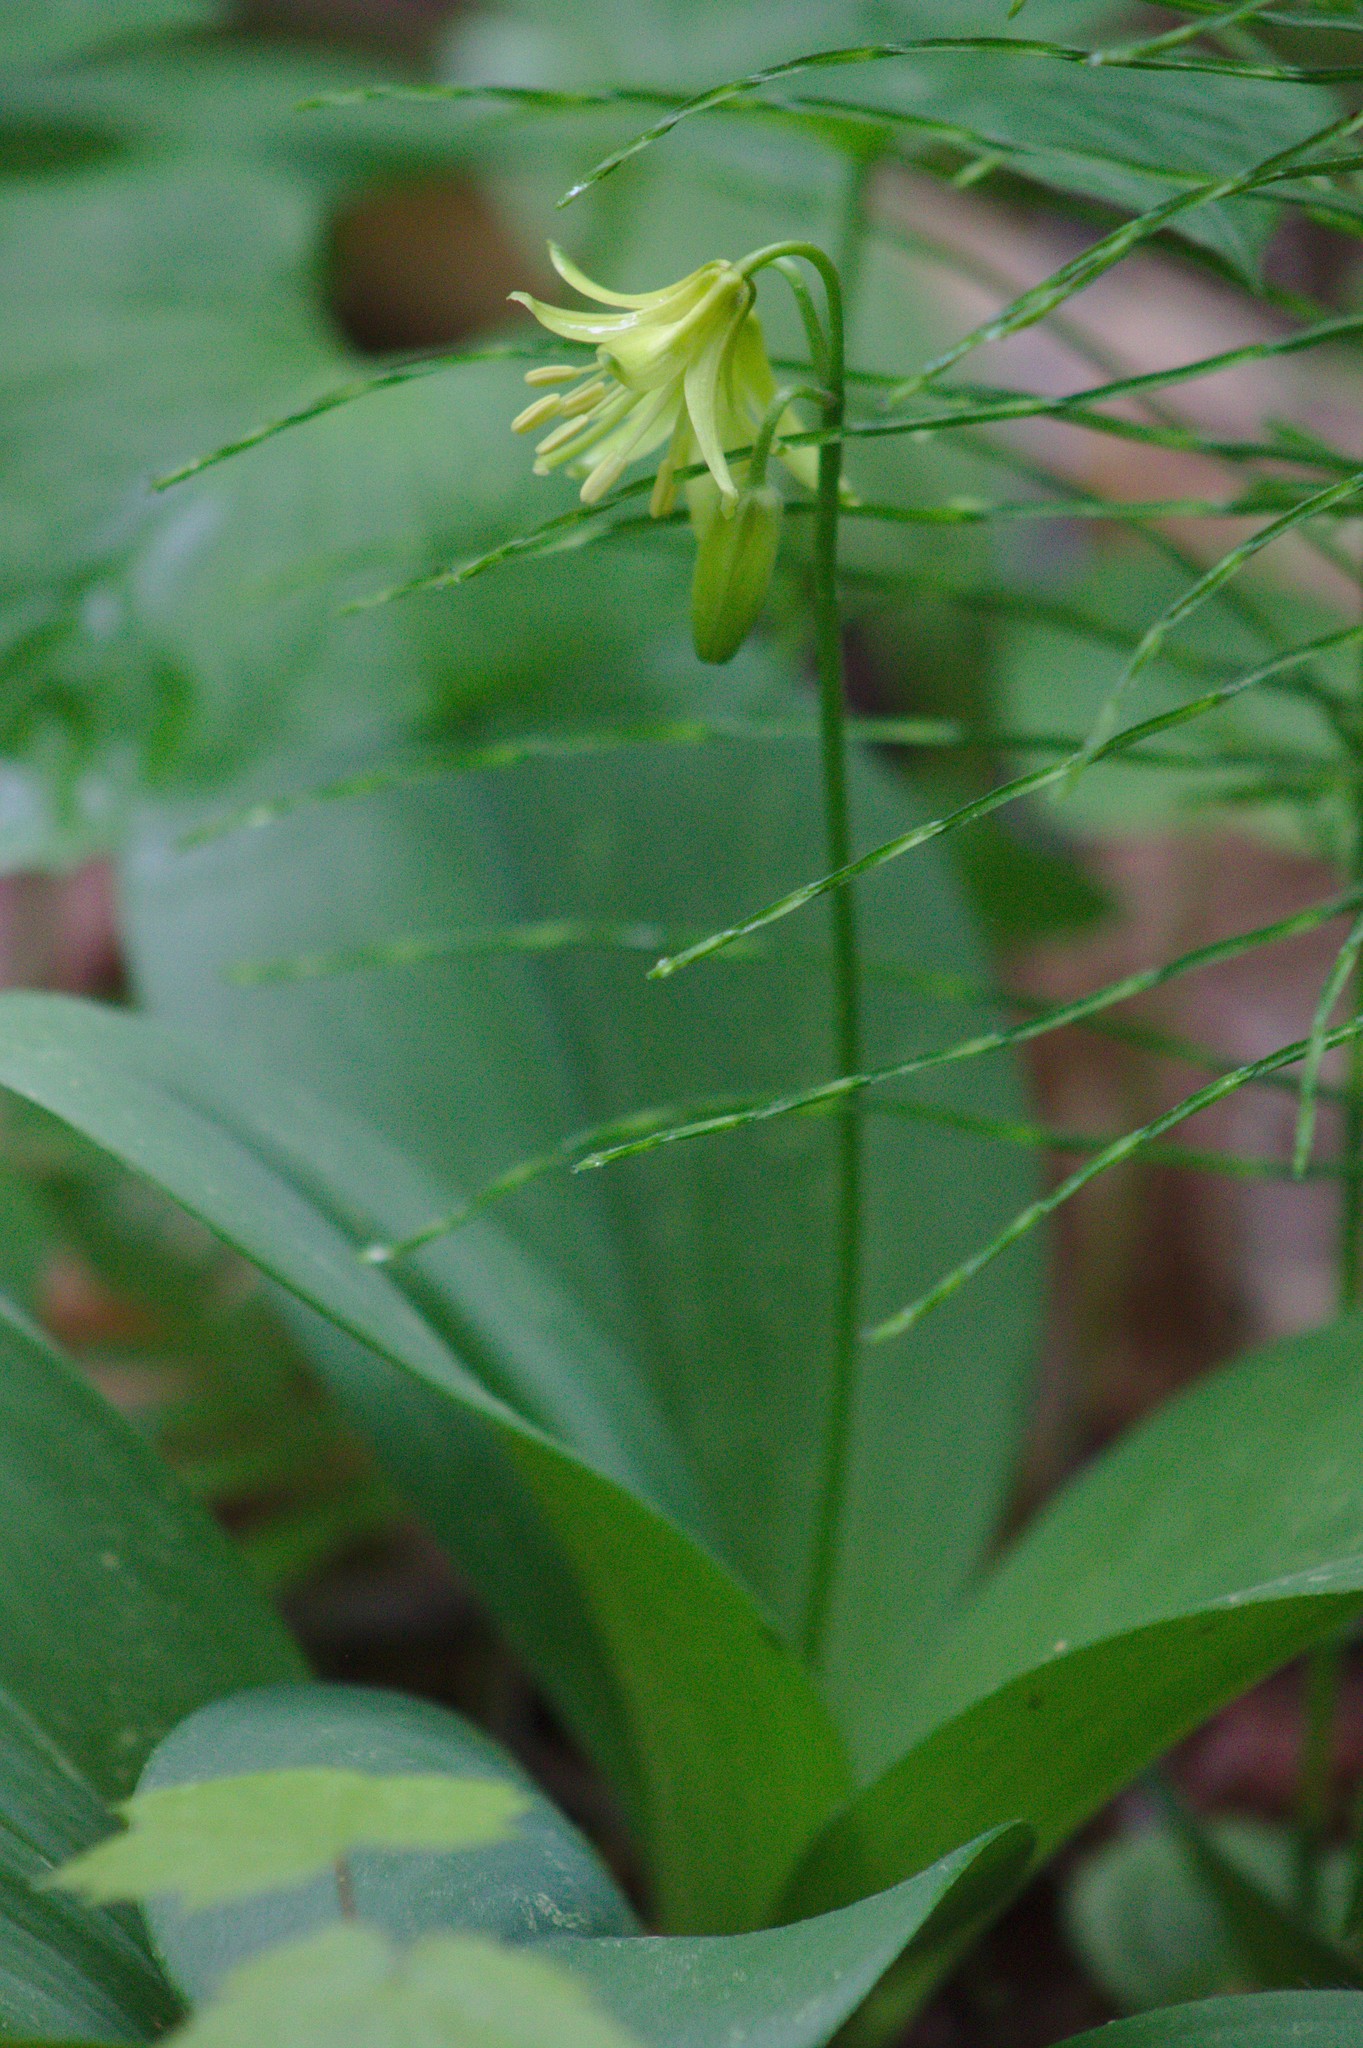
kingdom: Plantae
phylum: Tracheophyta
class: Liliopsida
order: Liliales
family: Liliaceae
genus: Clintonia
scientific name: Clintonia borealis
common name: Yellow clintonia
